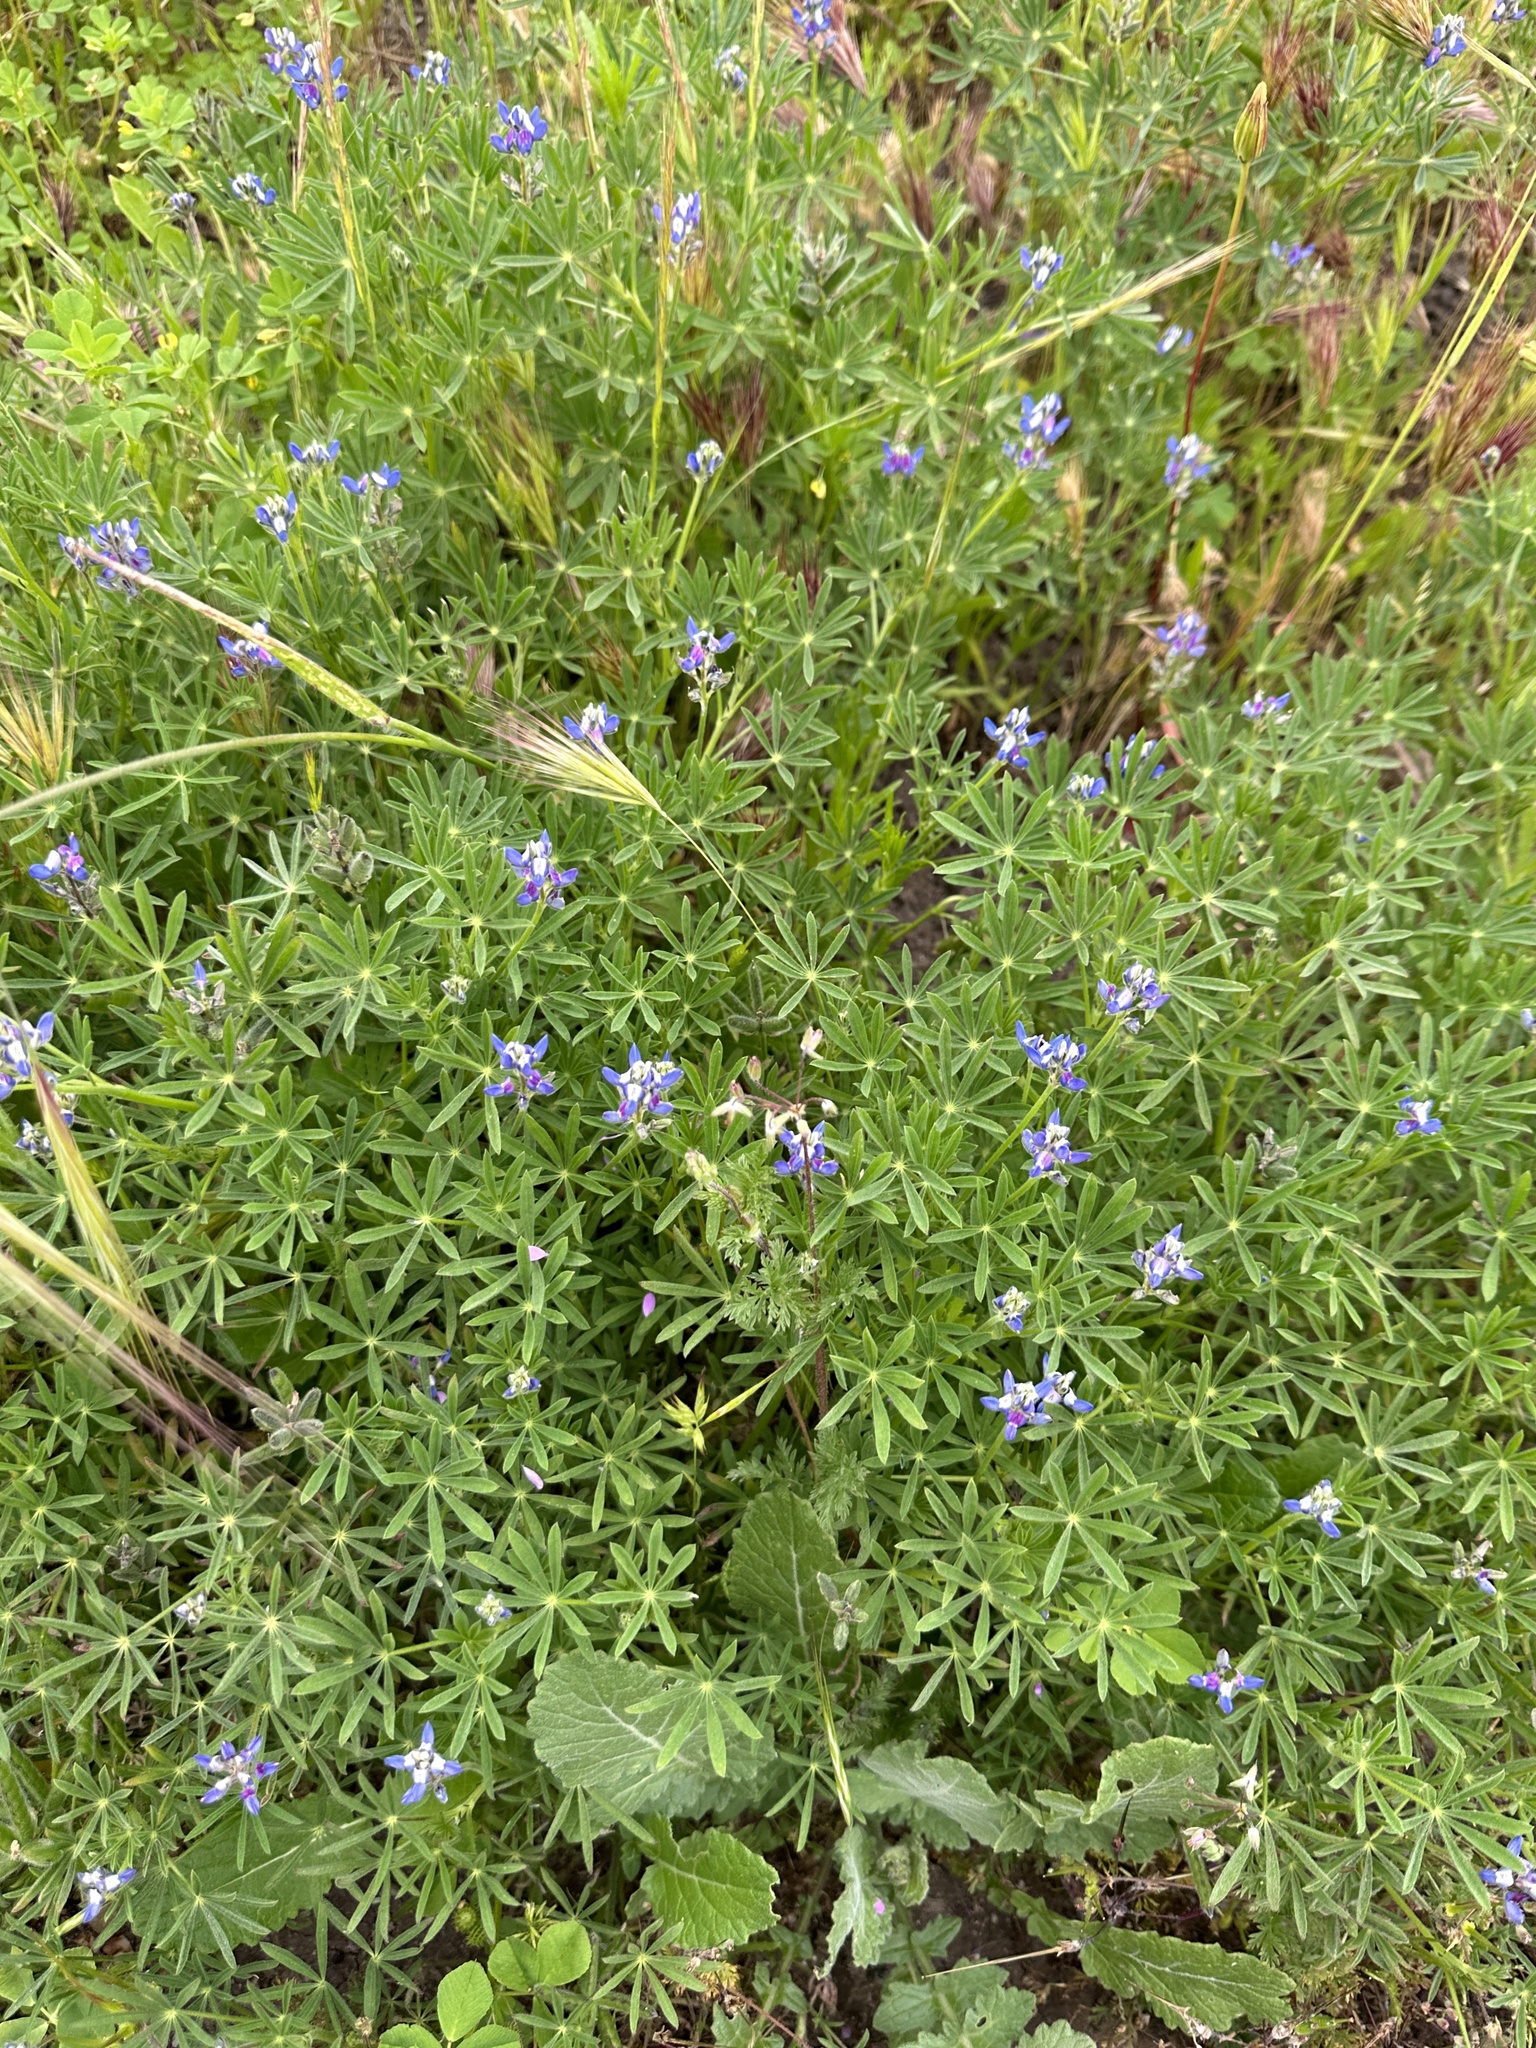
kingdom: Plantae
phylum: Tracheophyta
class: Magnoliopsida
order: Fabales
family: Fabaceae
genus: Lupinus
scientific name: Lupinus bicolor
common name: Miniature lupine
